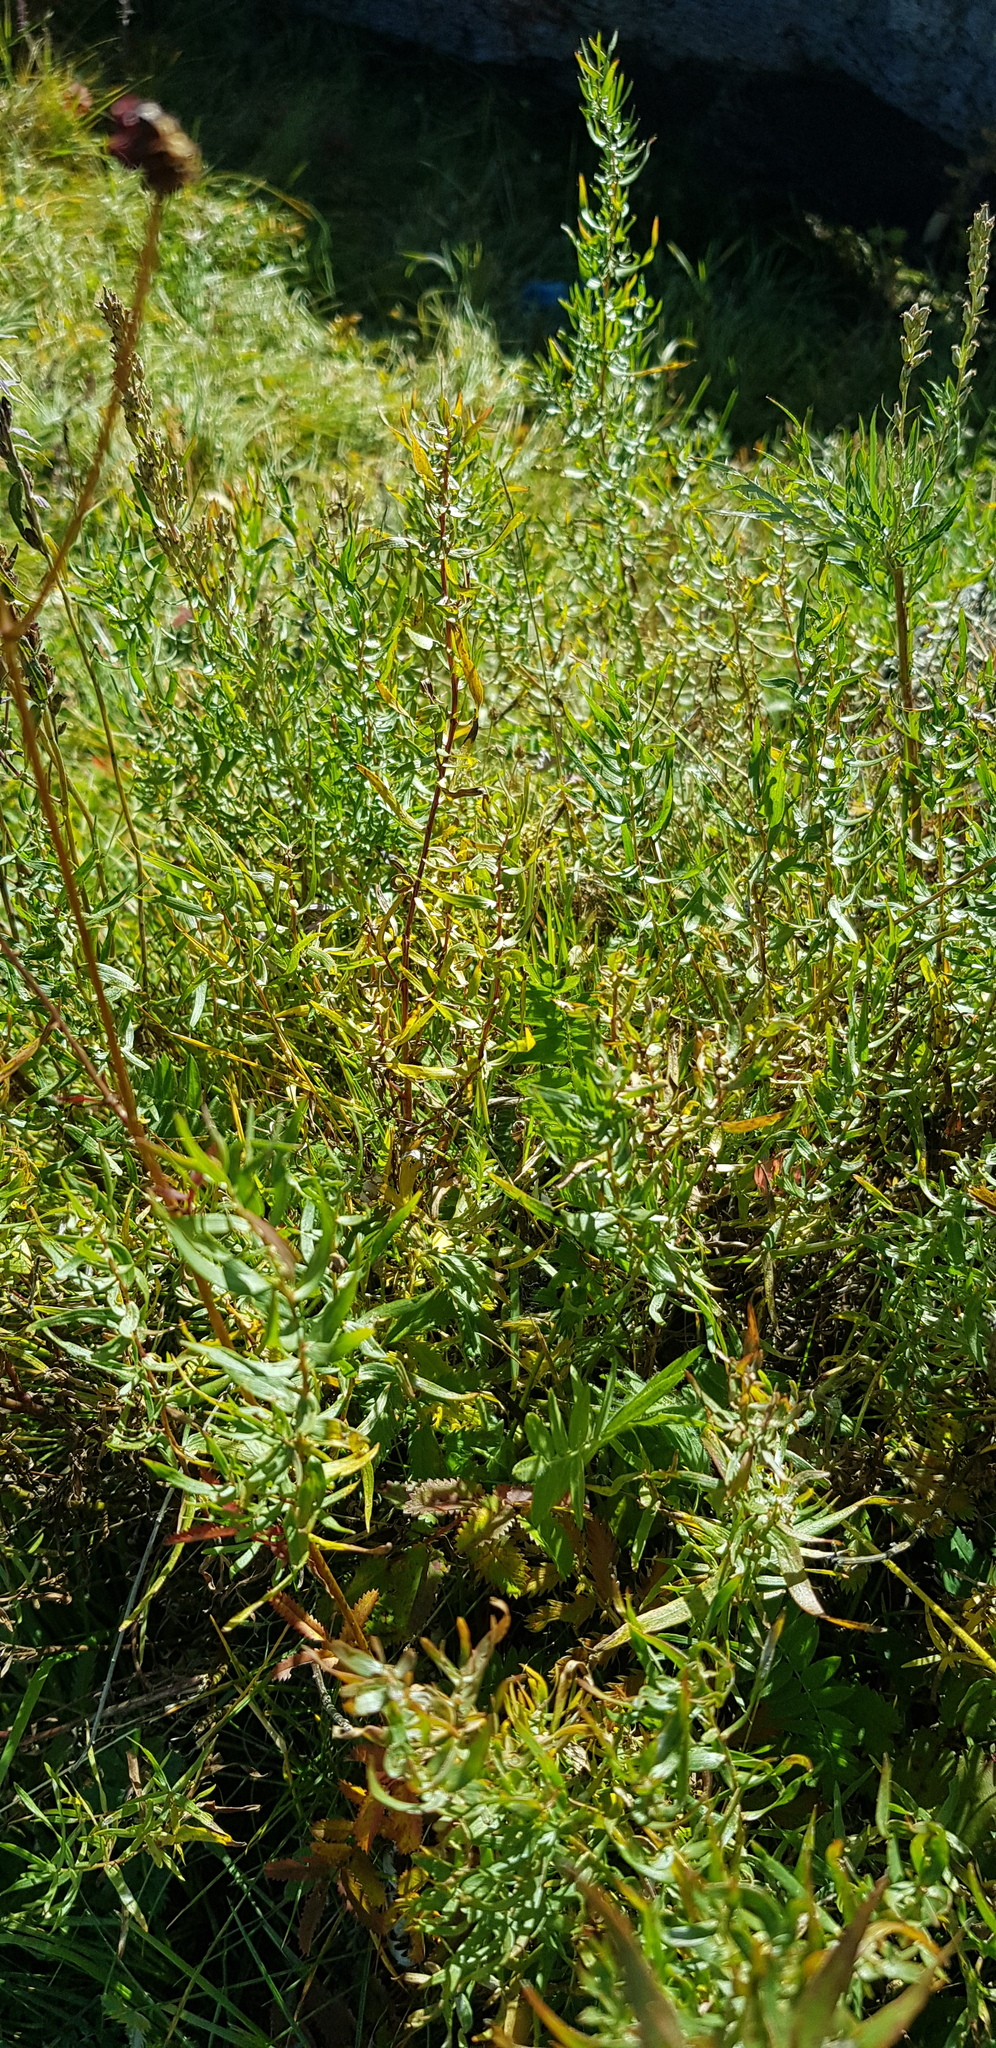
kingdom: Plantae
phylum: Tracheophyta
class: Magnoliopsida
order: Asterales
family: Asteraceae
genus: Artemisia
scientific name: Artemisia dracunculus
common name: Tarragon
